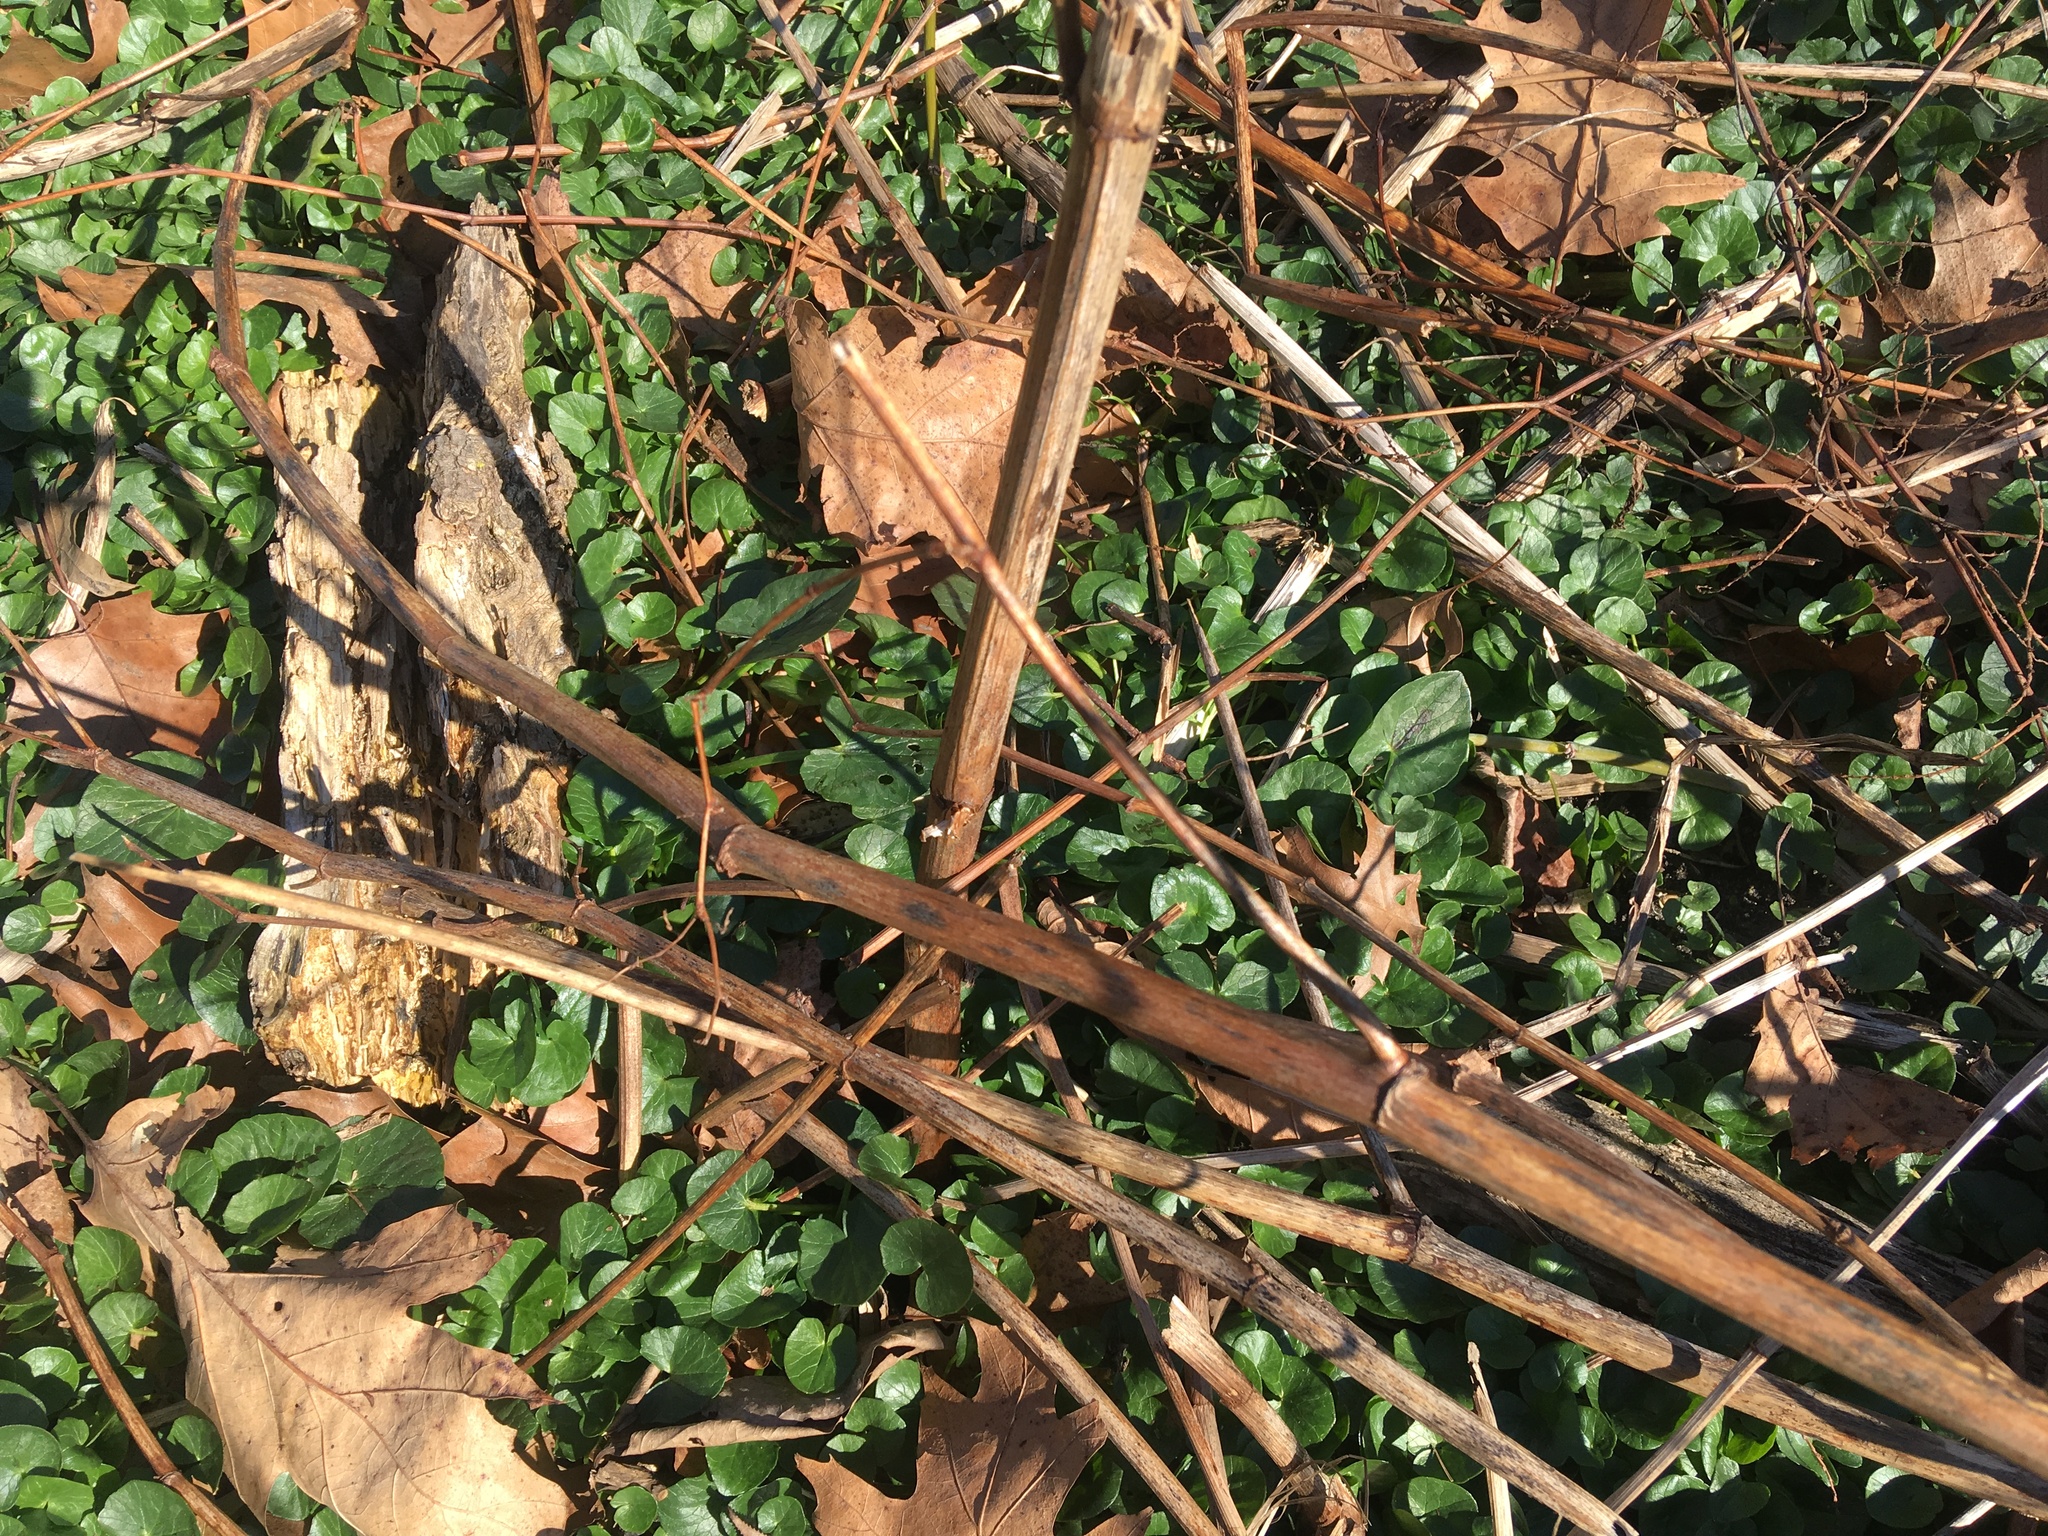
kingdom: Plantae
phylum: Tracheophyta
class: Magnoliopsida
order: Ranunculales
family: Ranunculaceae
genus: Ficaria
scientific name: Ficaria verna
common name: Lesser celandine
